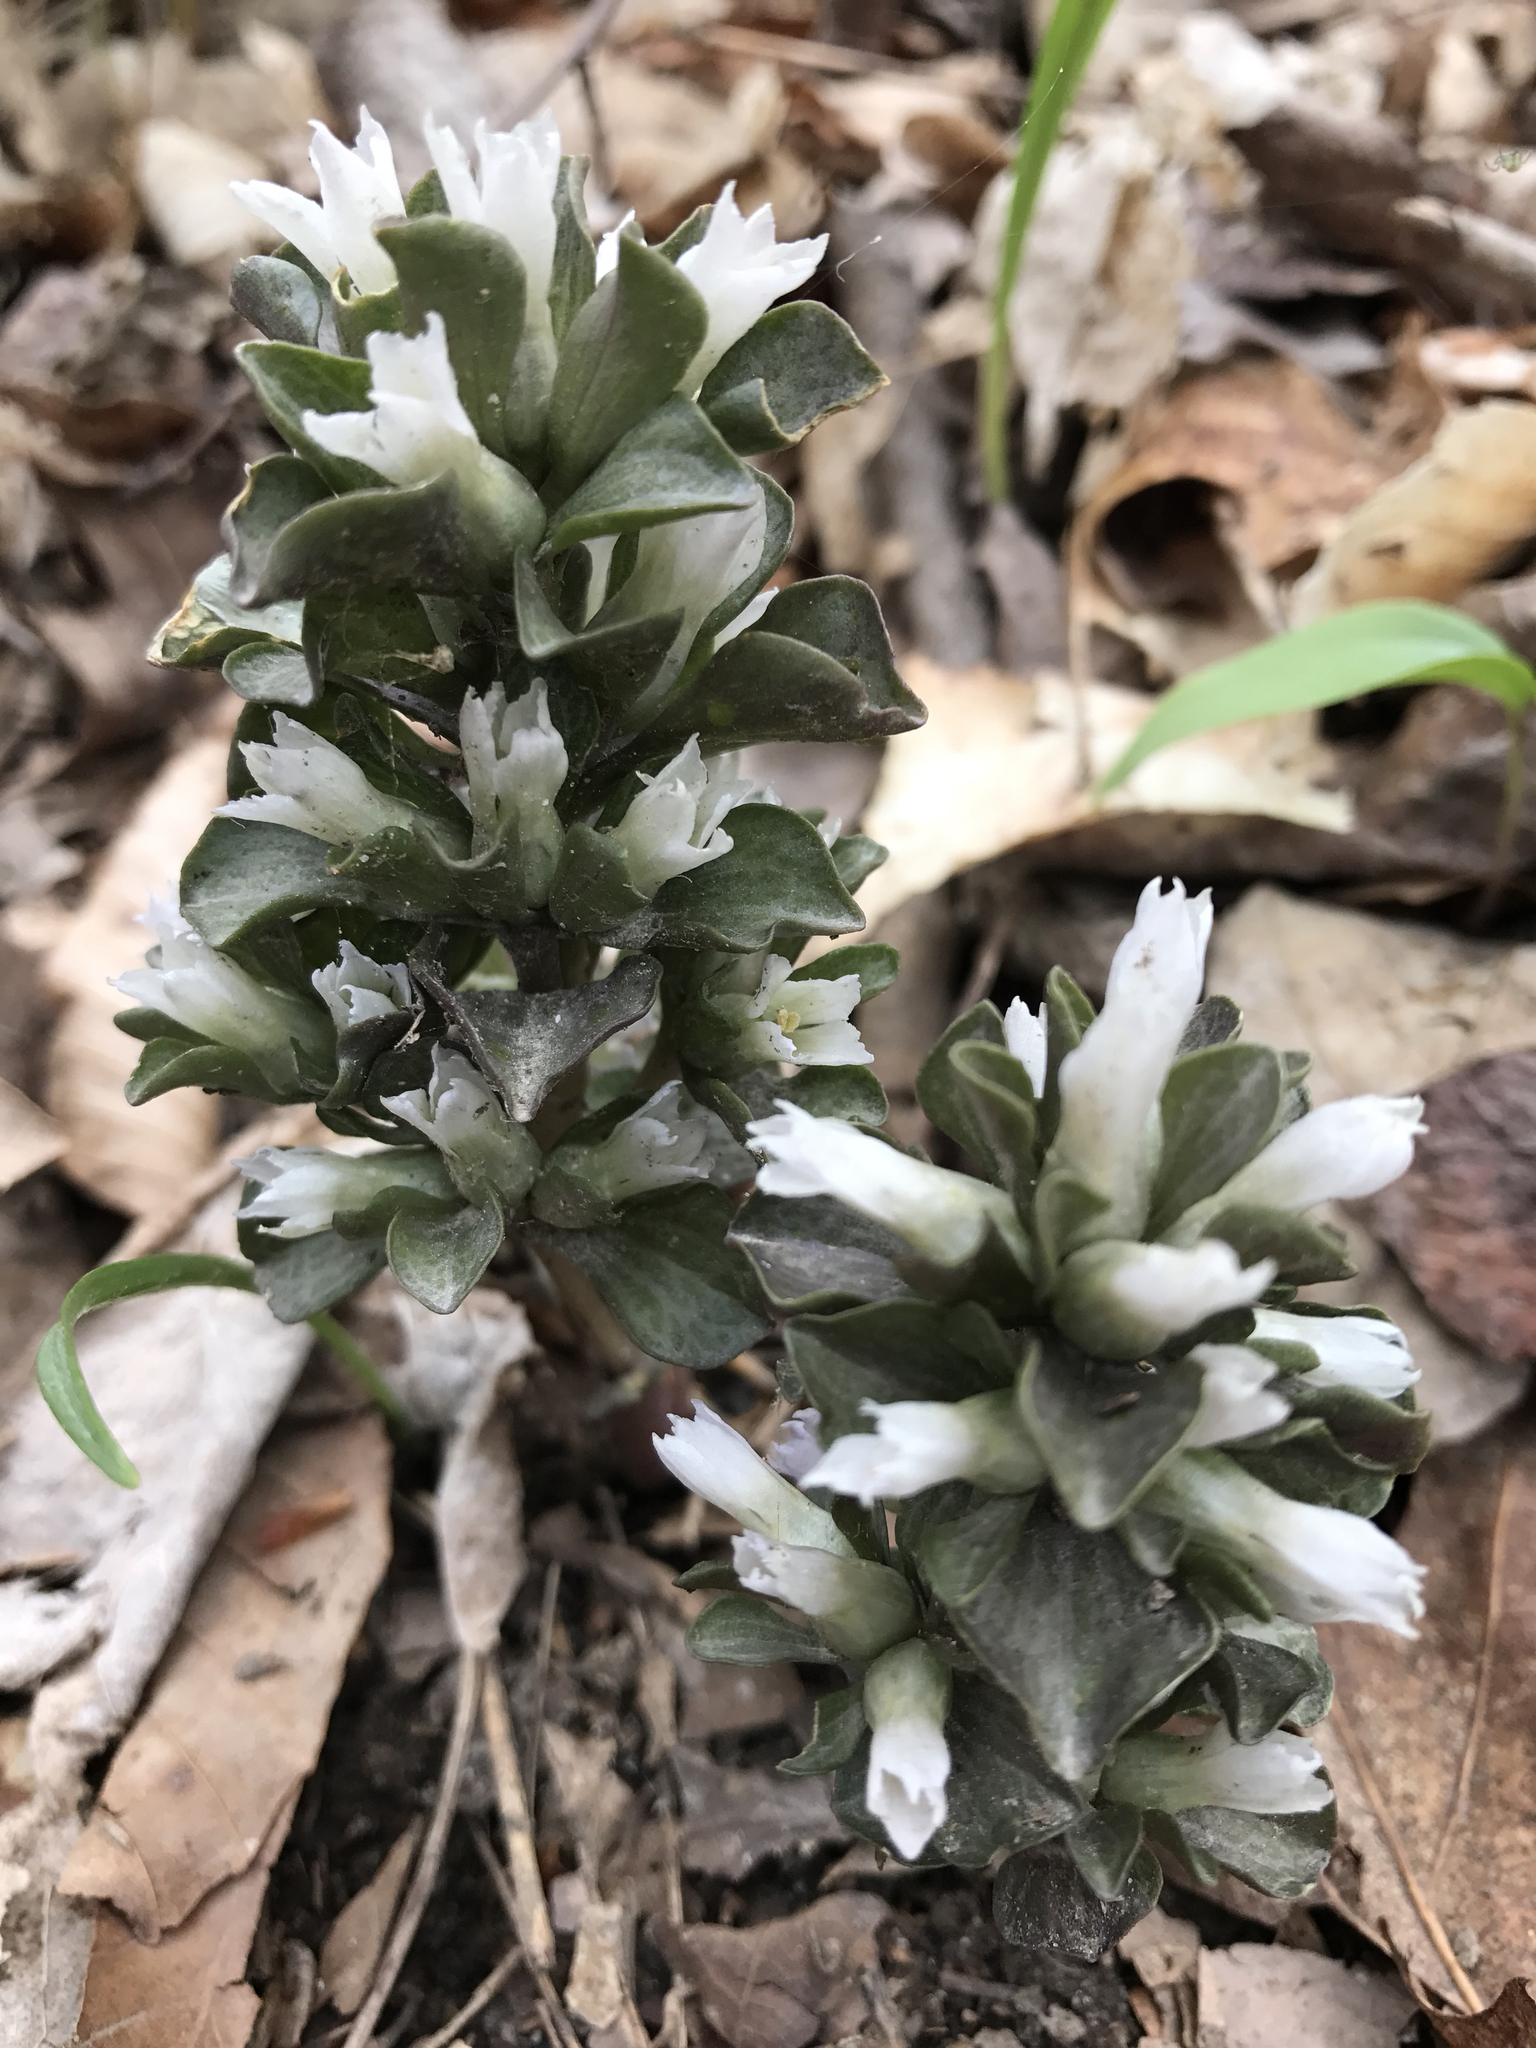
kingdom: Plantae
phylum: Tracheophyta
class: Magnoliopsida
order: Gentianales
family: Gentianaceae
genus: Obolaria
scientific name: Obolaria virginica
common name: Pennywort
